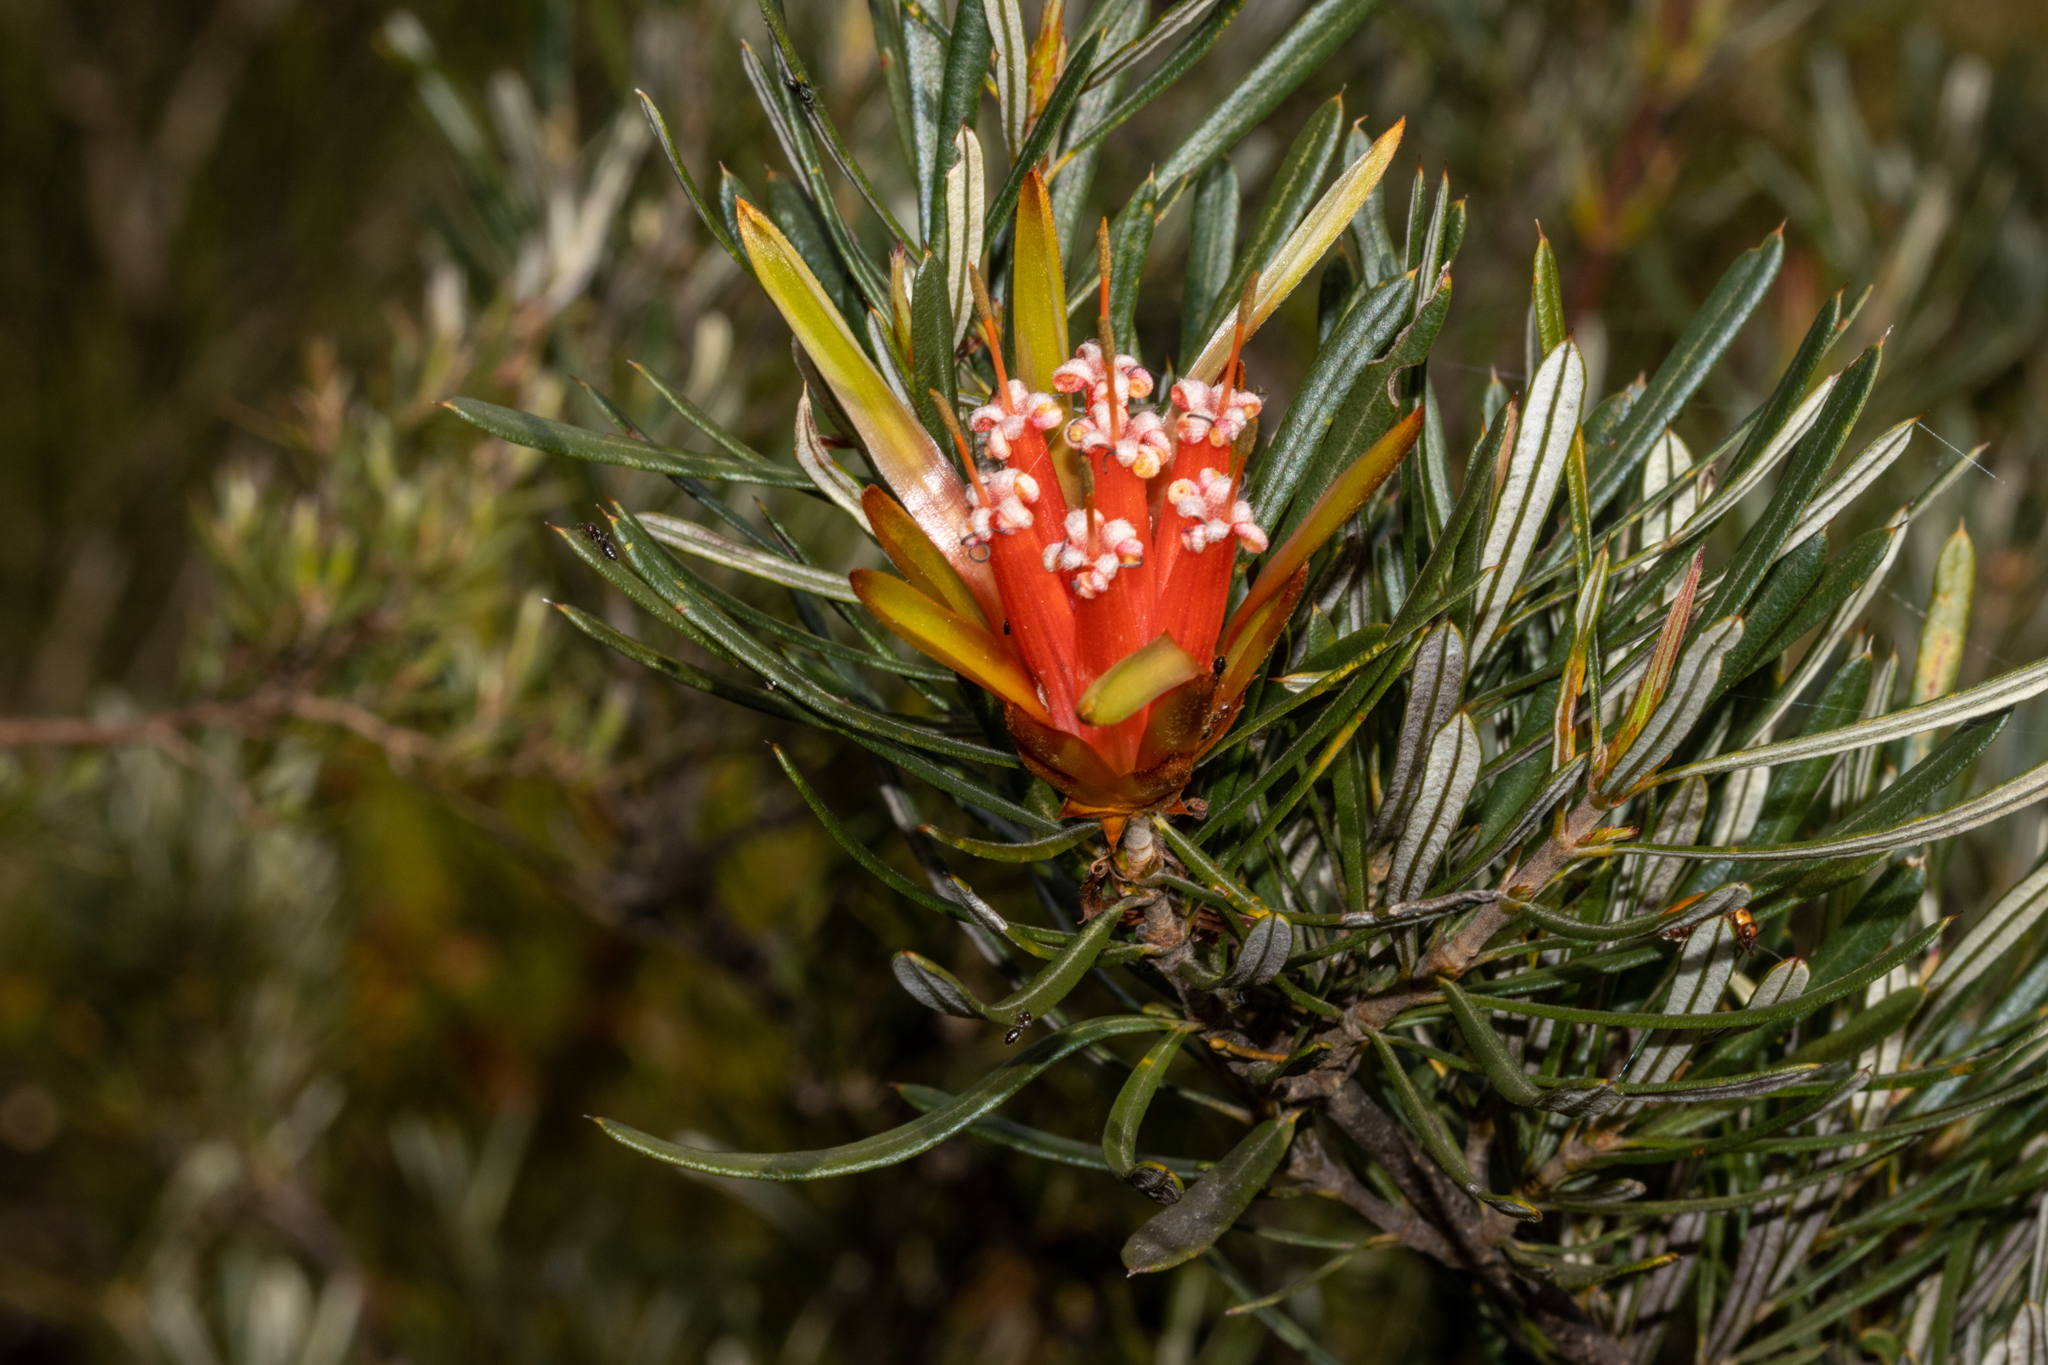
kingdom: Plantae
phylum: Tracheophyta
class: Magnoliopsida
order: Proteales
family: Proteaceae
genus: Lambertia
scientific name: Lambertia formosa
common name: Mountain-devil
